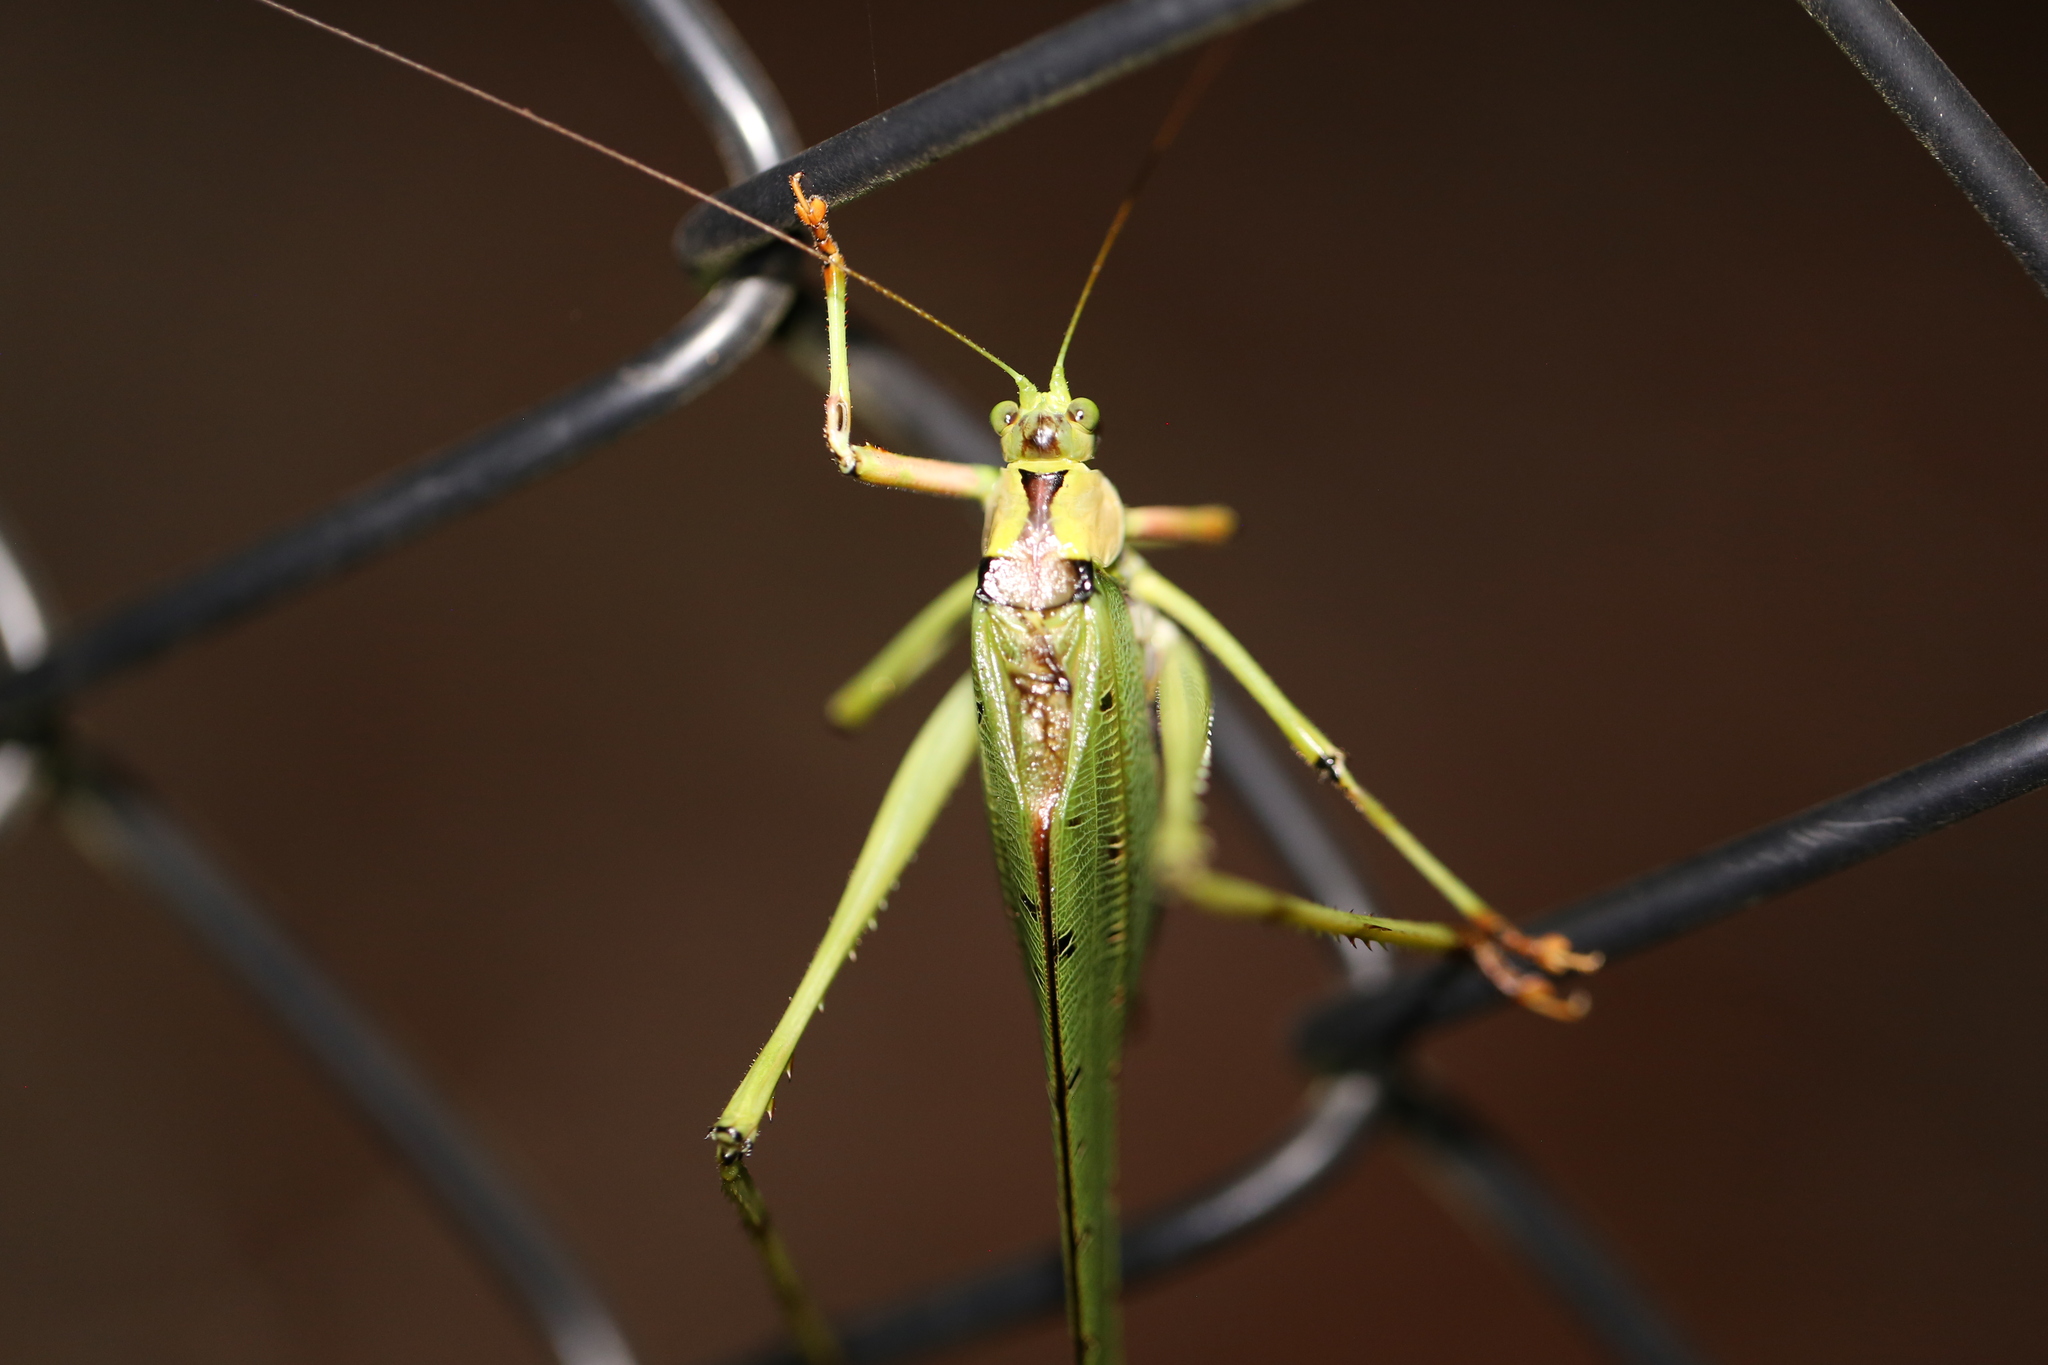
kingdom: Animalia
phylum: Arthropoda
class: Insecta
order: Orthoptera
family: Tettigoniidae
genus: Ephippitytha
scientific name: Ephippitytha trigintiduoguttata
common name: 32-spotted katydid
